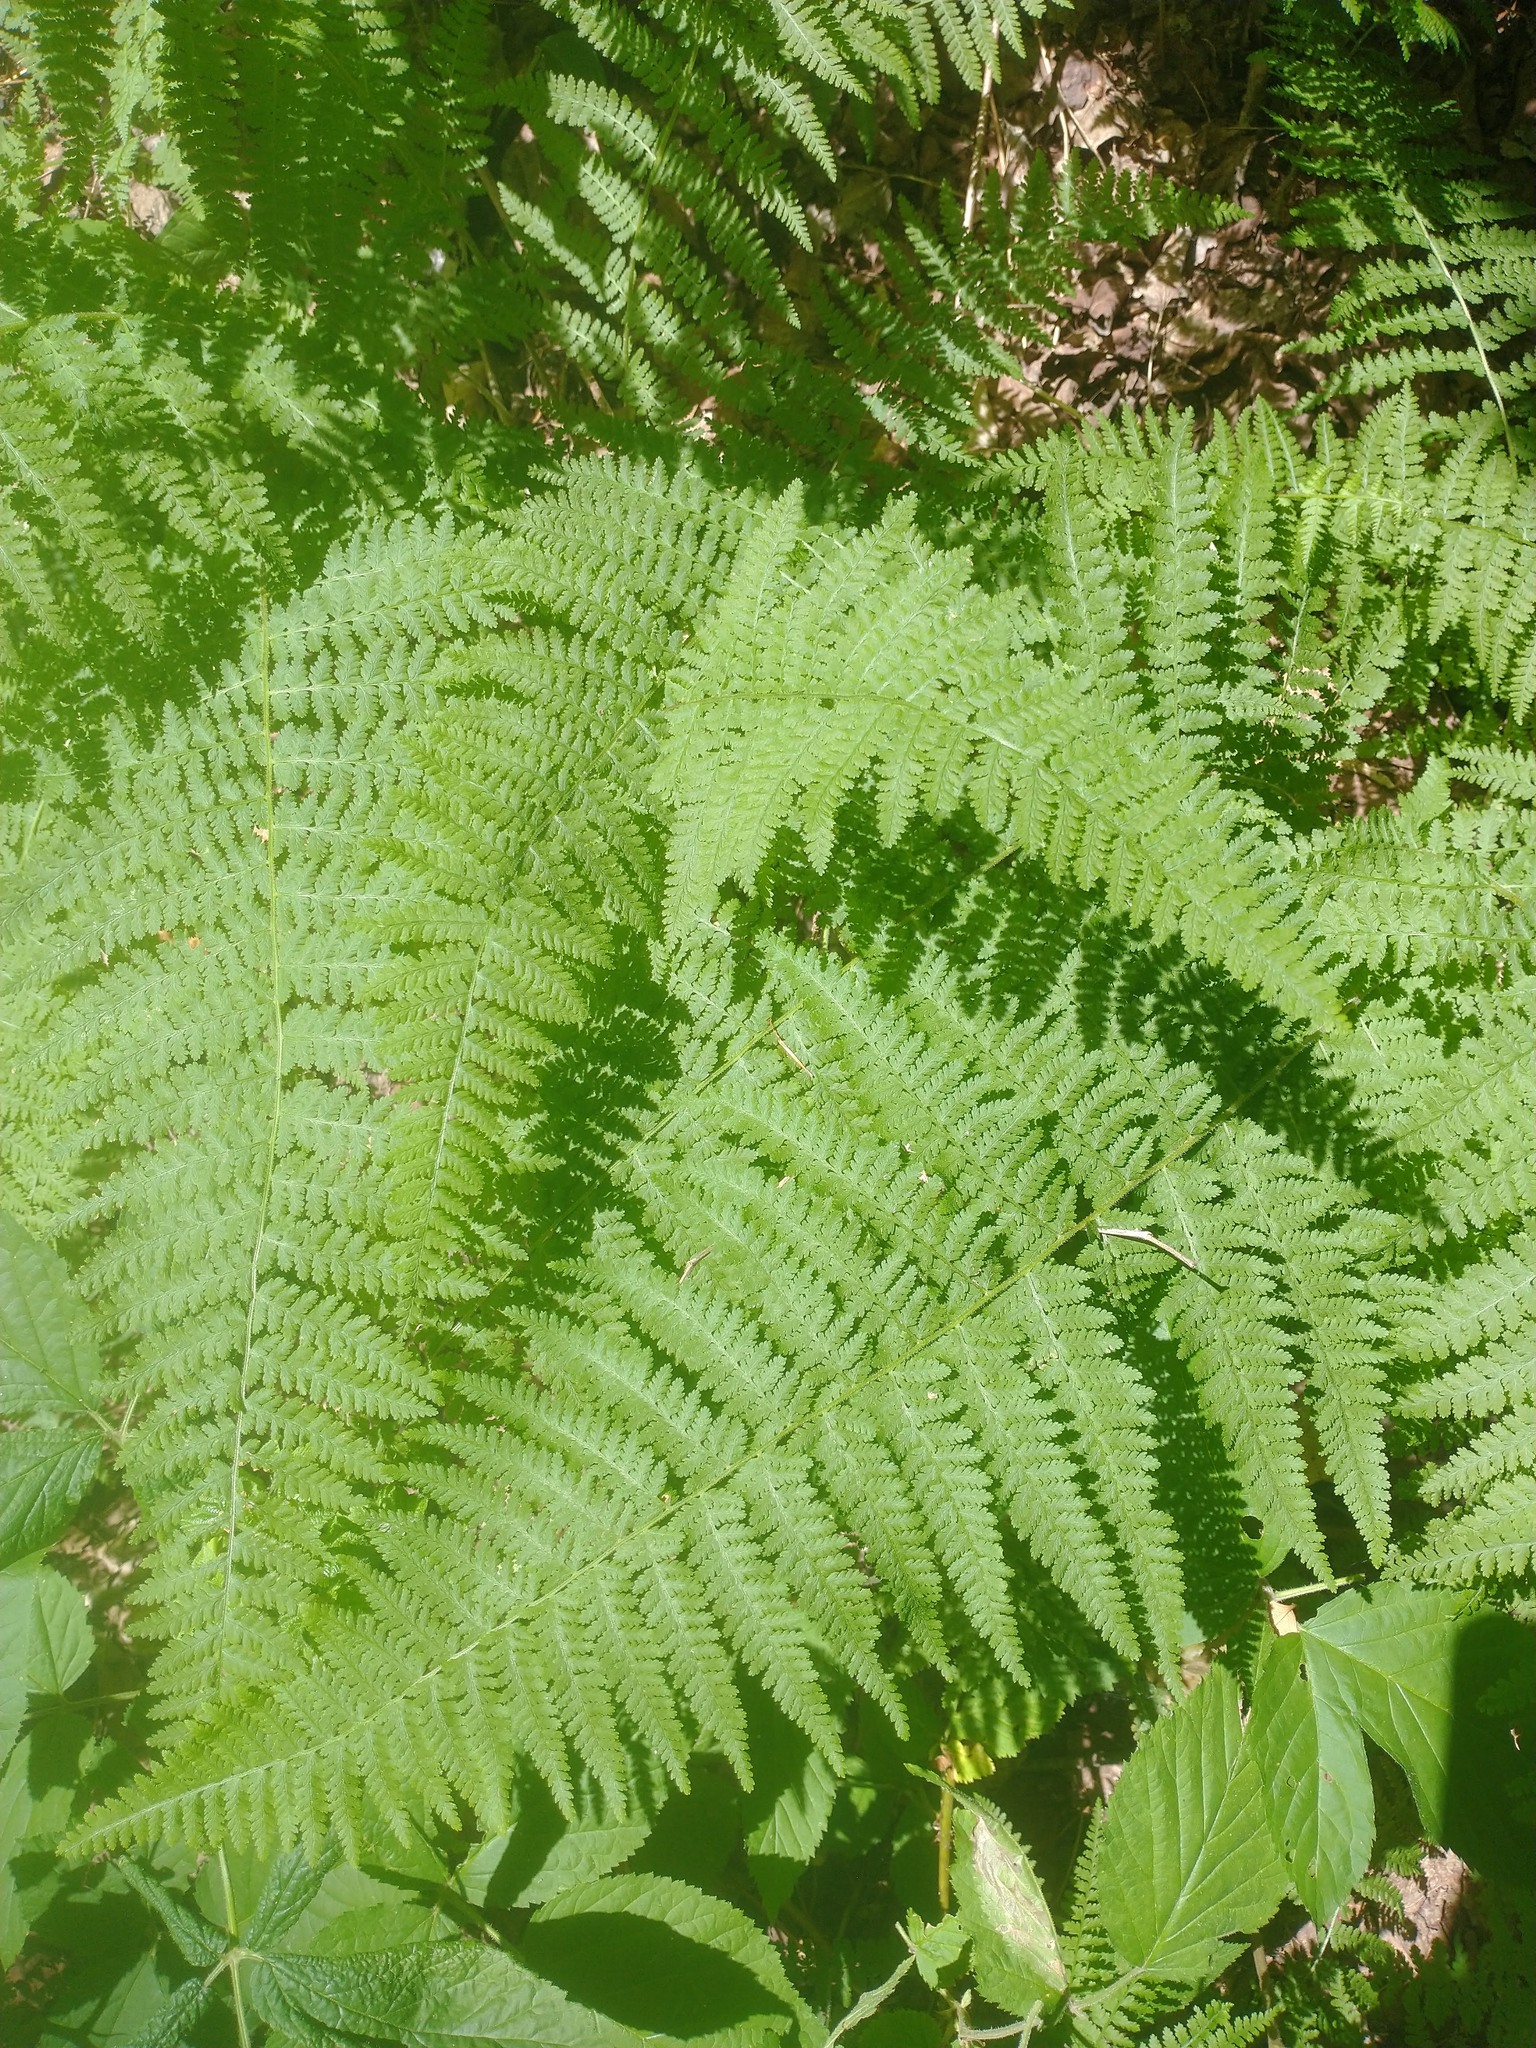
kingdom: Plantae
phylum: Tracheophyta
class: Polypodiopsida
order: Polypodiales
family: Dennstaedtiaceae
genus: Sitobolium
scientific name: Sitobolium punctilobum
